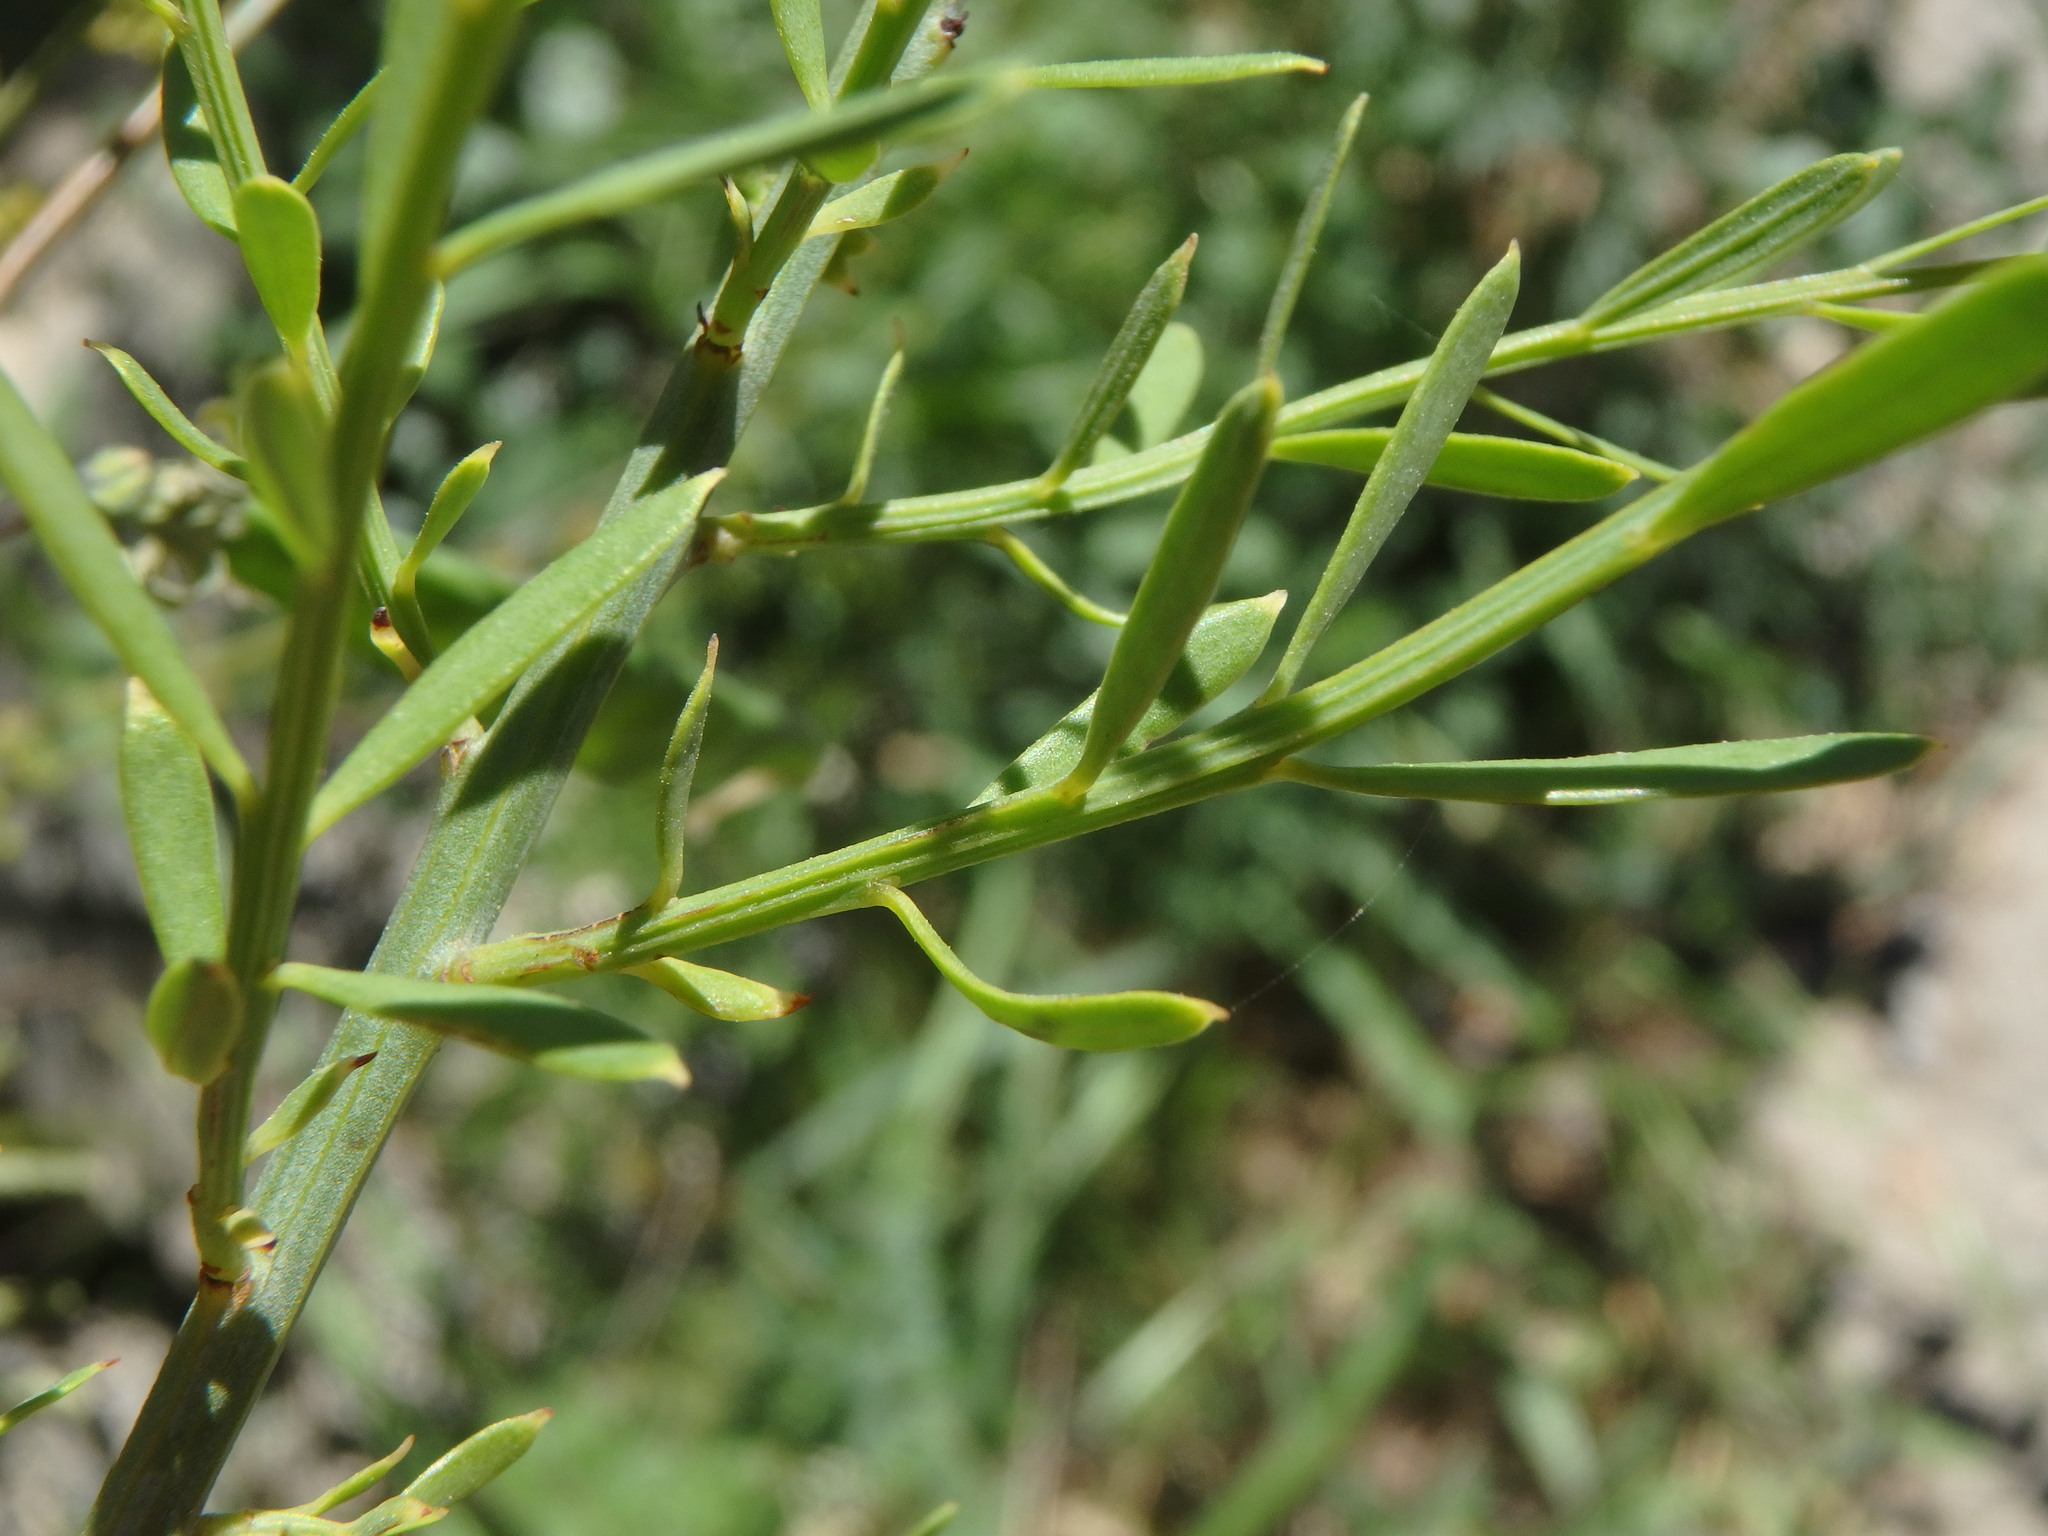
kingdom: Plantae
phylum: Tracheophyta
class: Magnoliopsida
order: Santalales
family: Santalaceae
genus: Osyris
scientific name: Osyris alba
